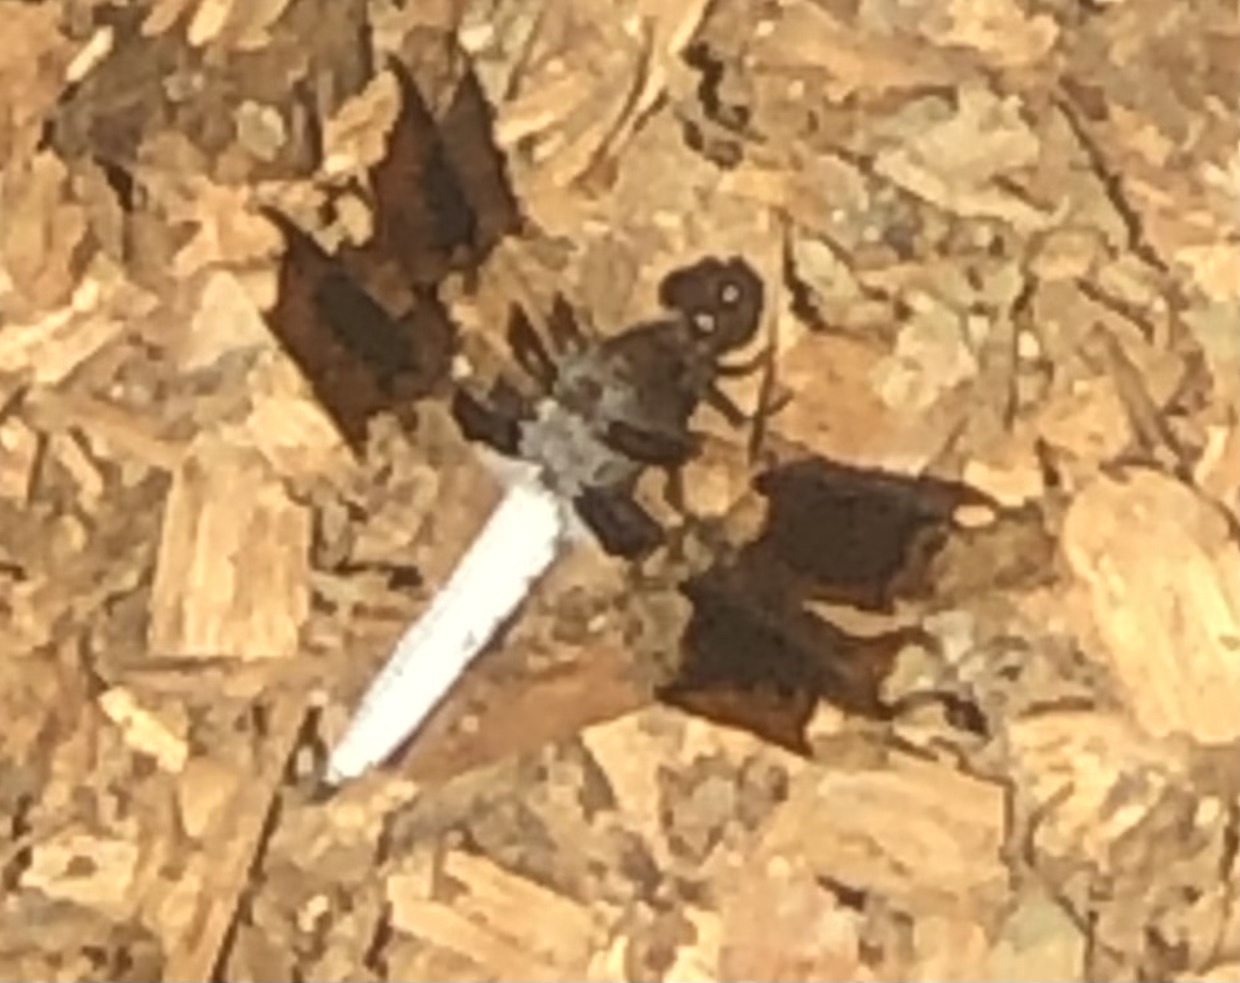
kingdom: Animalia
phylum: Arthropoda
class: Insecta
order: Odonata
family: Libellulidae
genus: Plathemis
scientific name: Plathemis lydia
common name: Common whitetail
